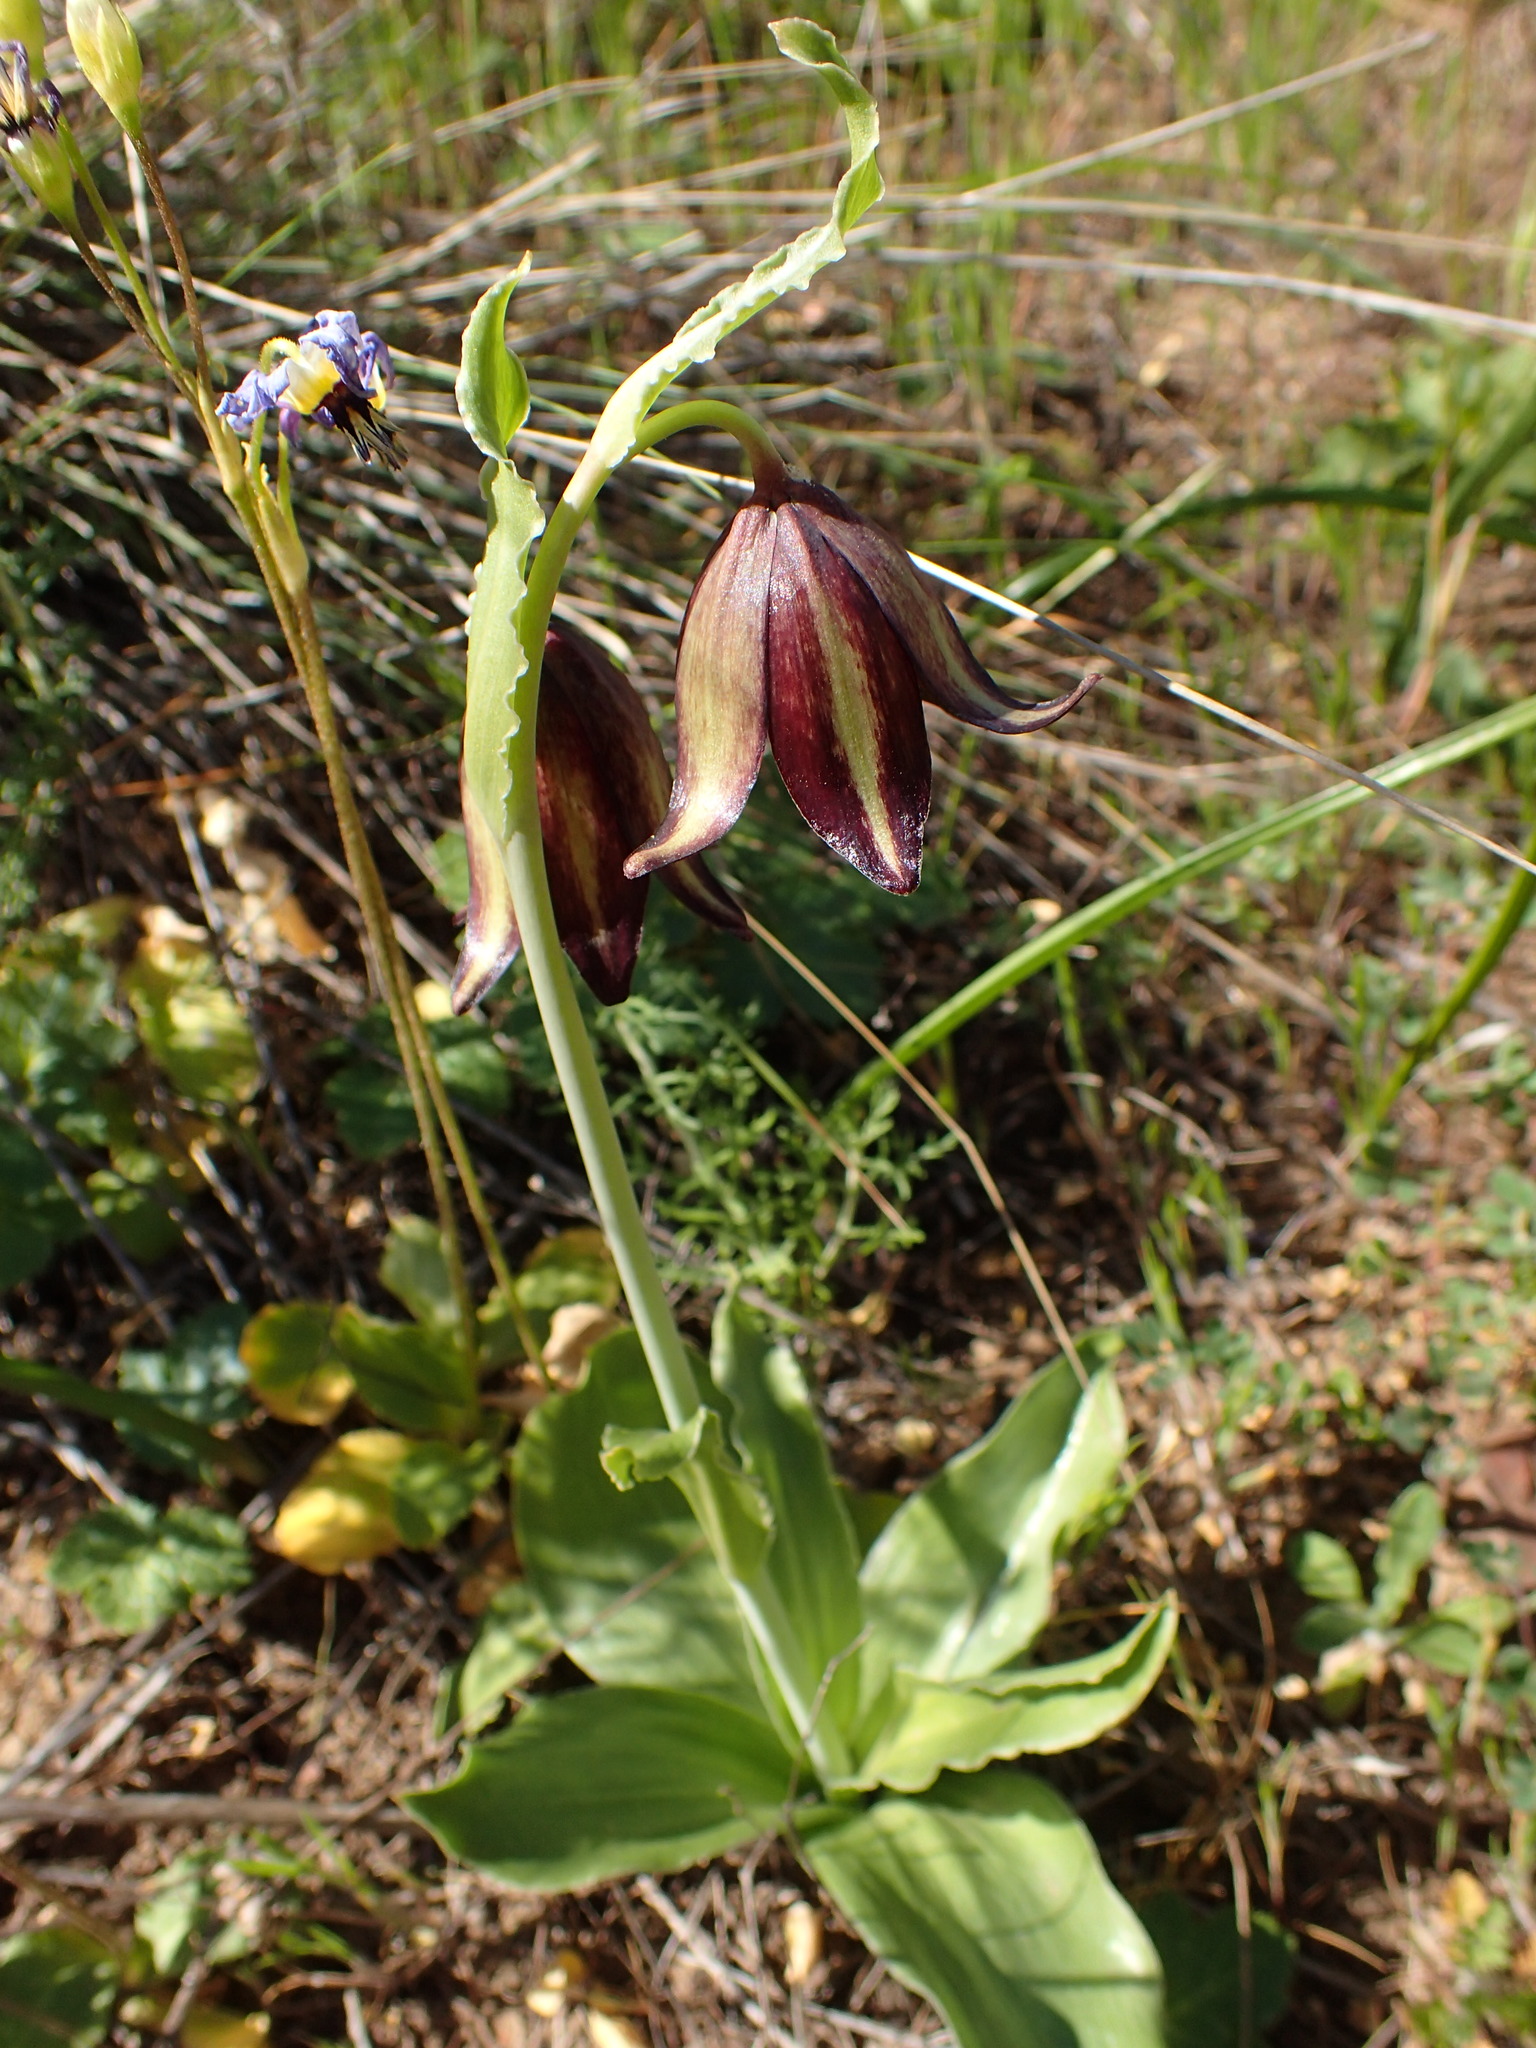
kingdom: Plantae
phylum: Tracheophyta
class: Liliopsida
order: Liliales
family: Liliaceae
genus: Fritillaria
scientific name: Fritillaria biflora
